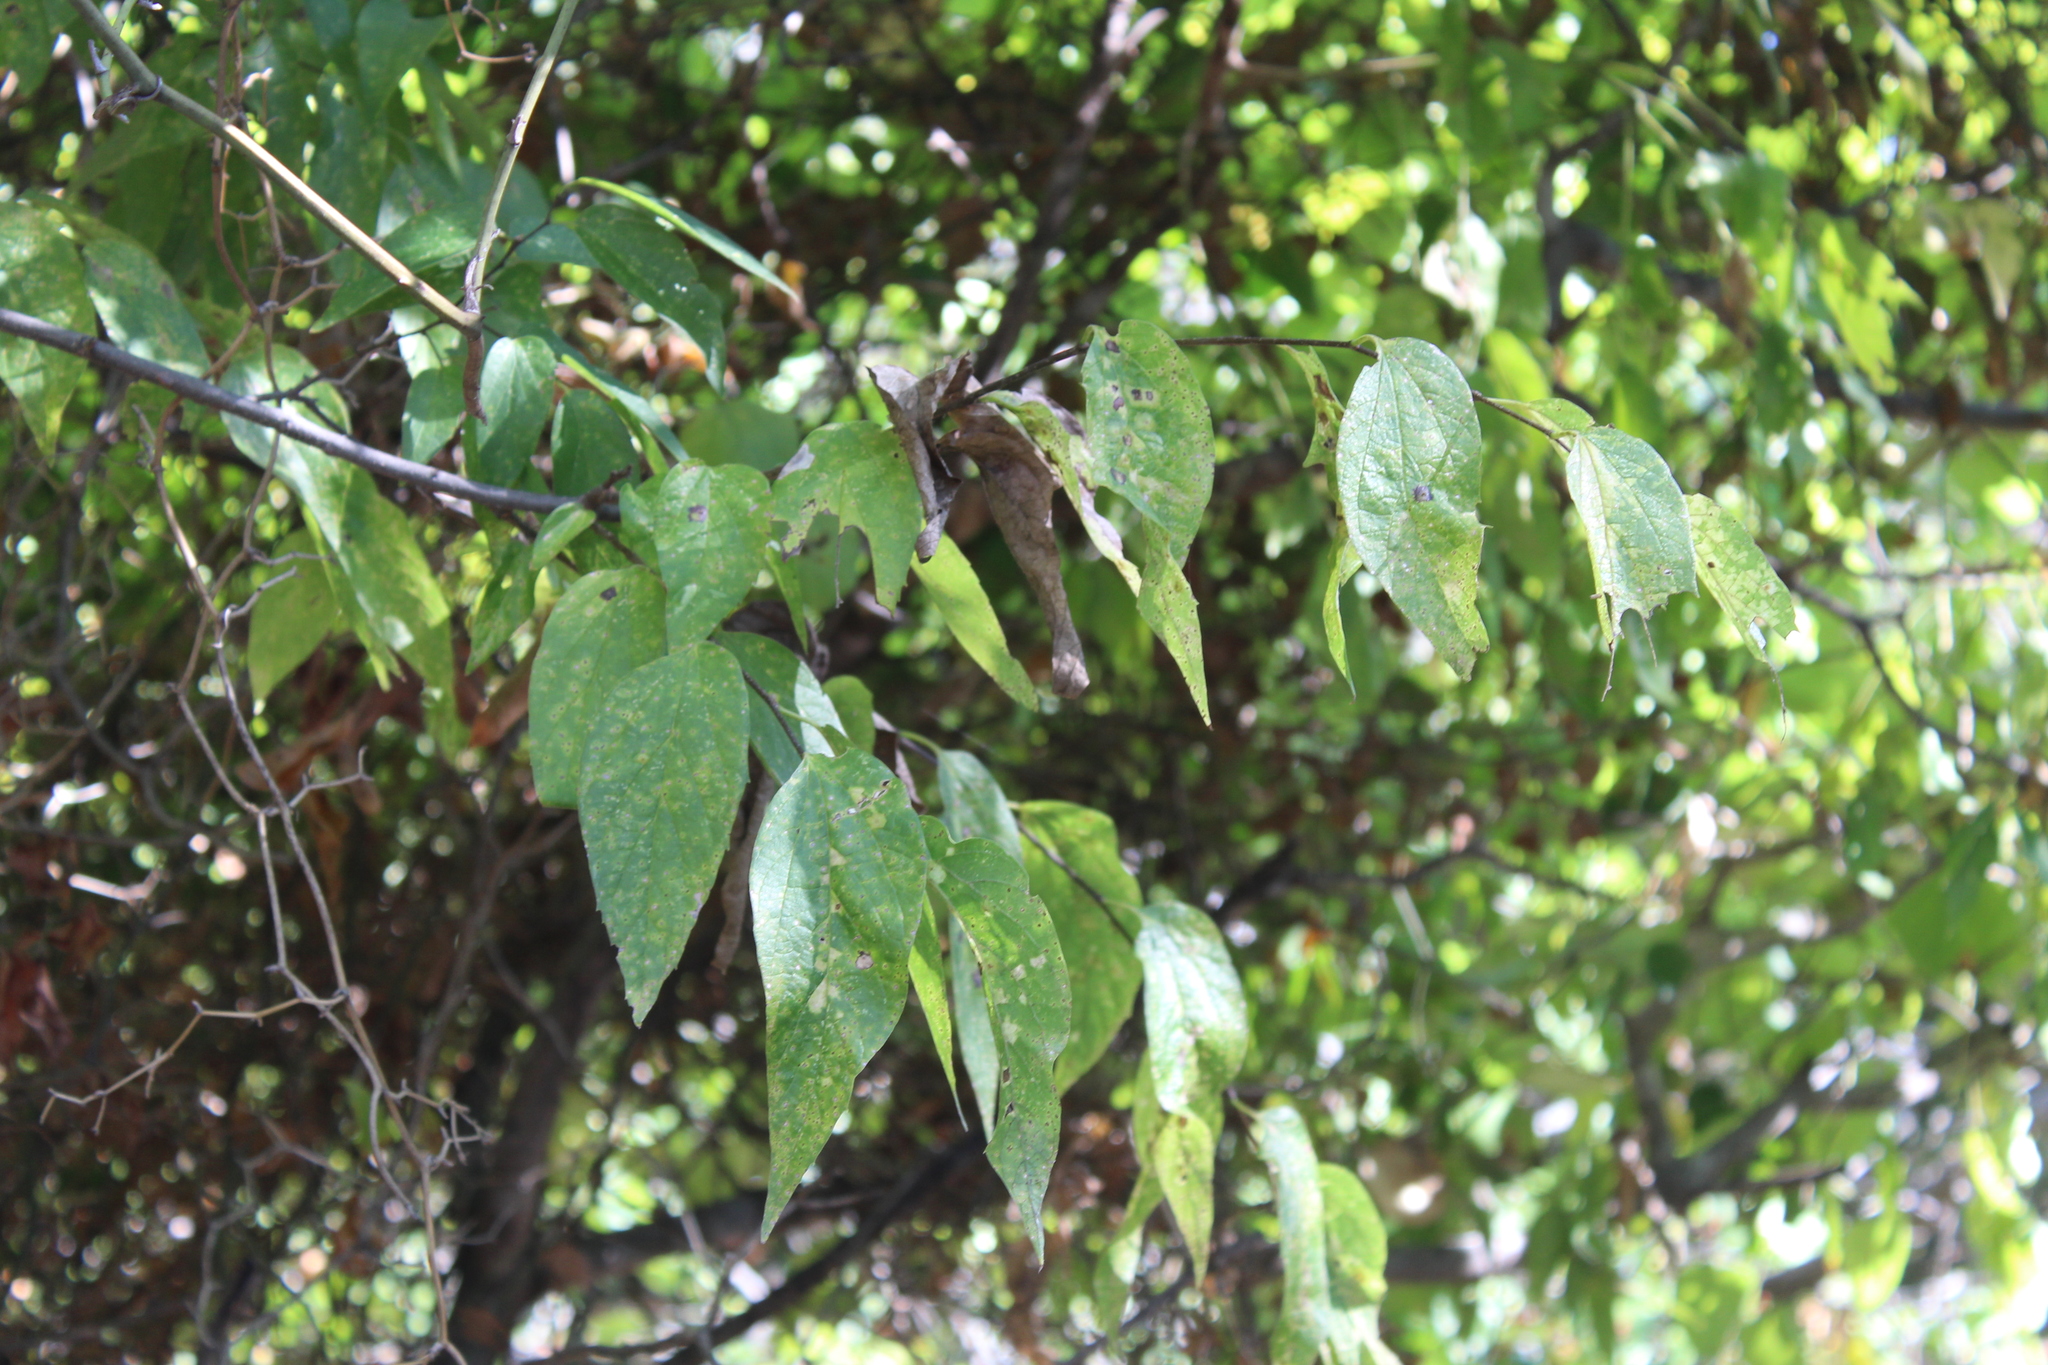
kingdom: Plantae
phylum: Tracheophyta
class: Magnoliopsida
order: Rosales
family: Cannabaceae
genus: Celtis
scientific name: Celtis laevigata
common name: Sugarberry
